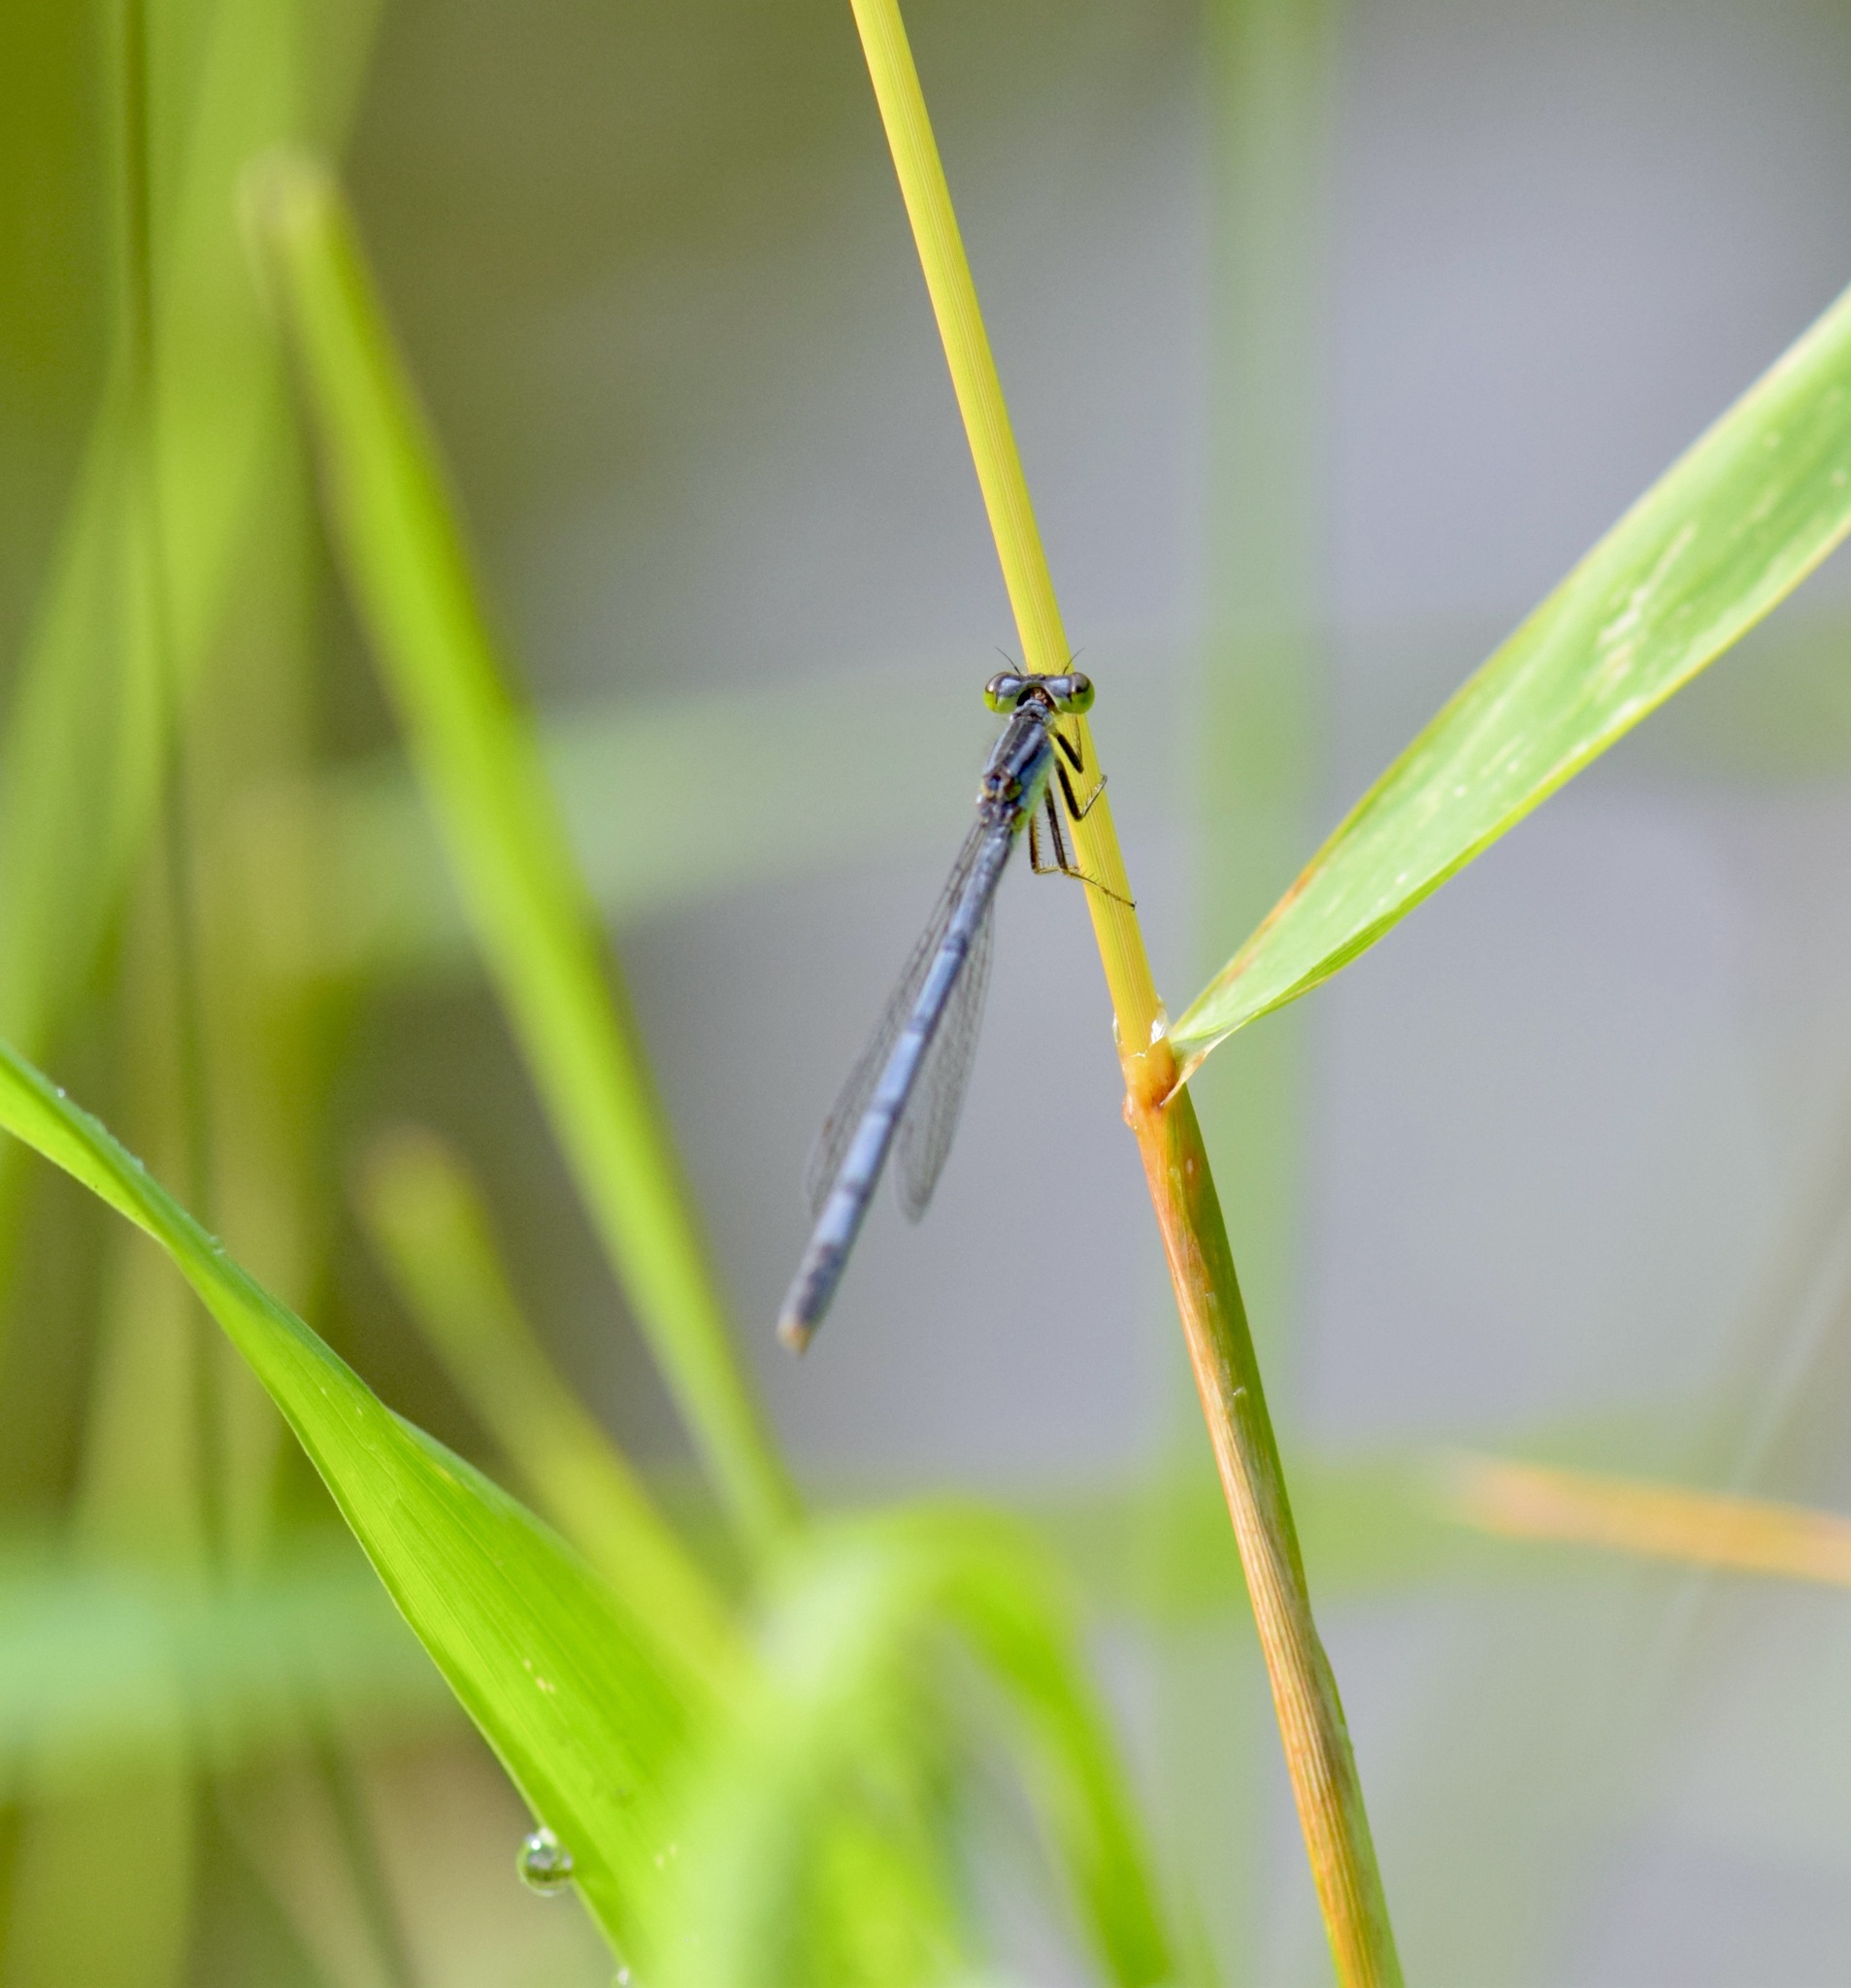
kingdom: Animalia
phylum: Arthropoda
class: Insecta
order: Odonata
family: Coenagrionidae
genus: Ischnura
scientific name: Ischnura verticalis
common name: Eastern forktail
